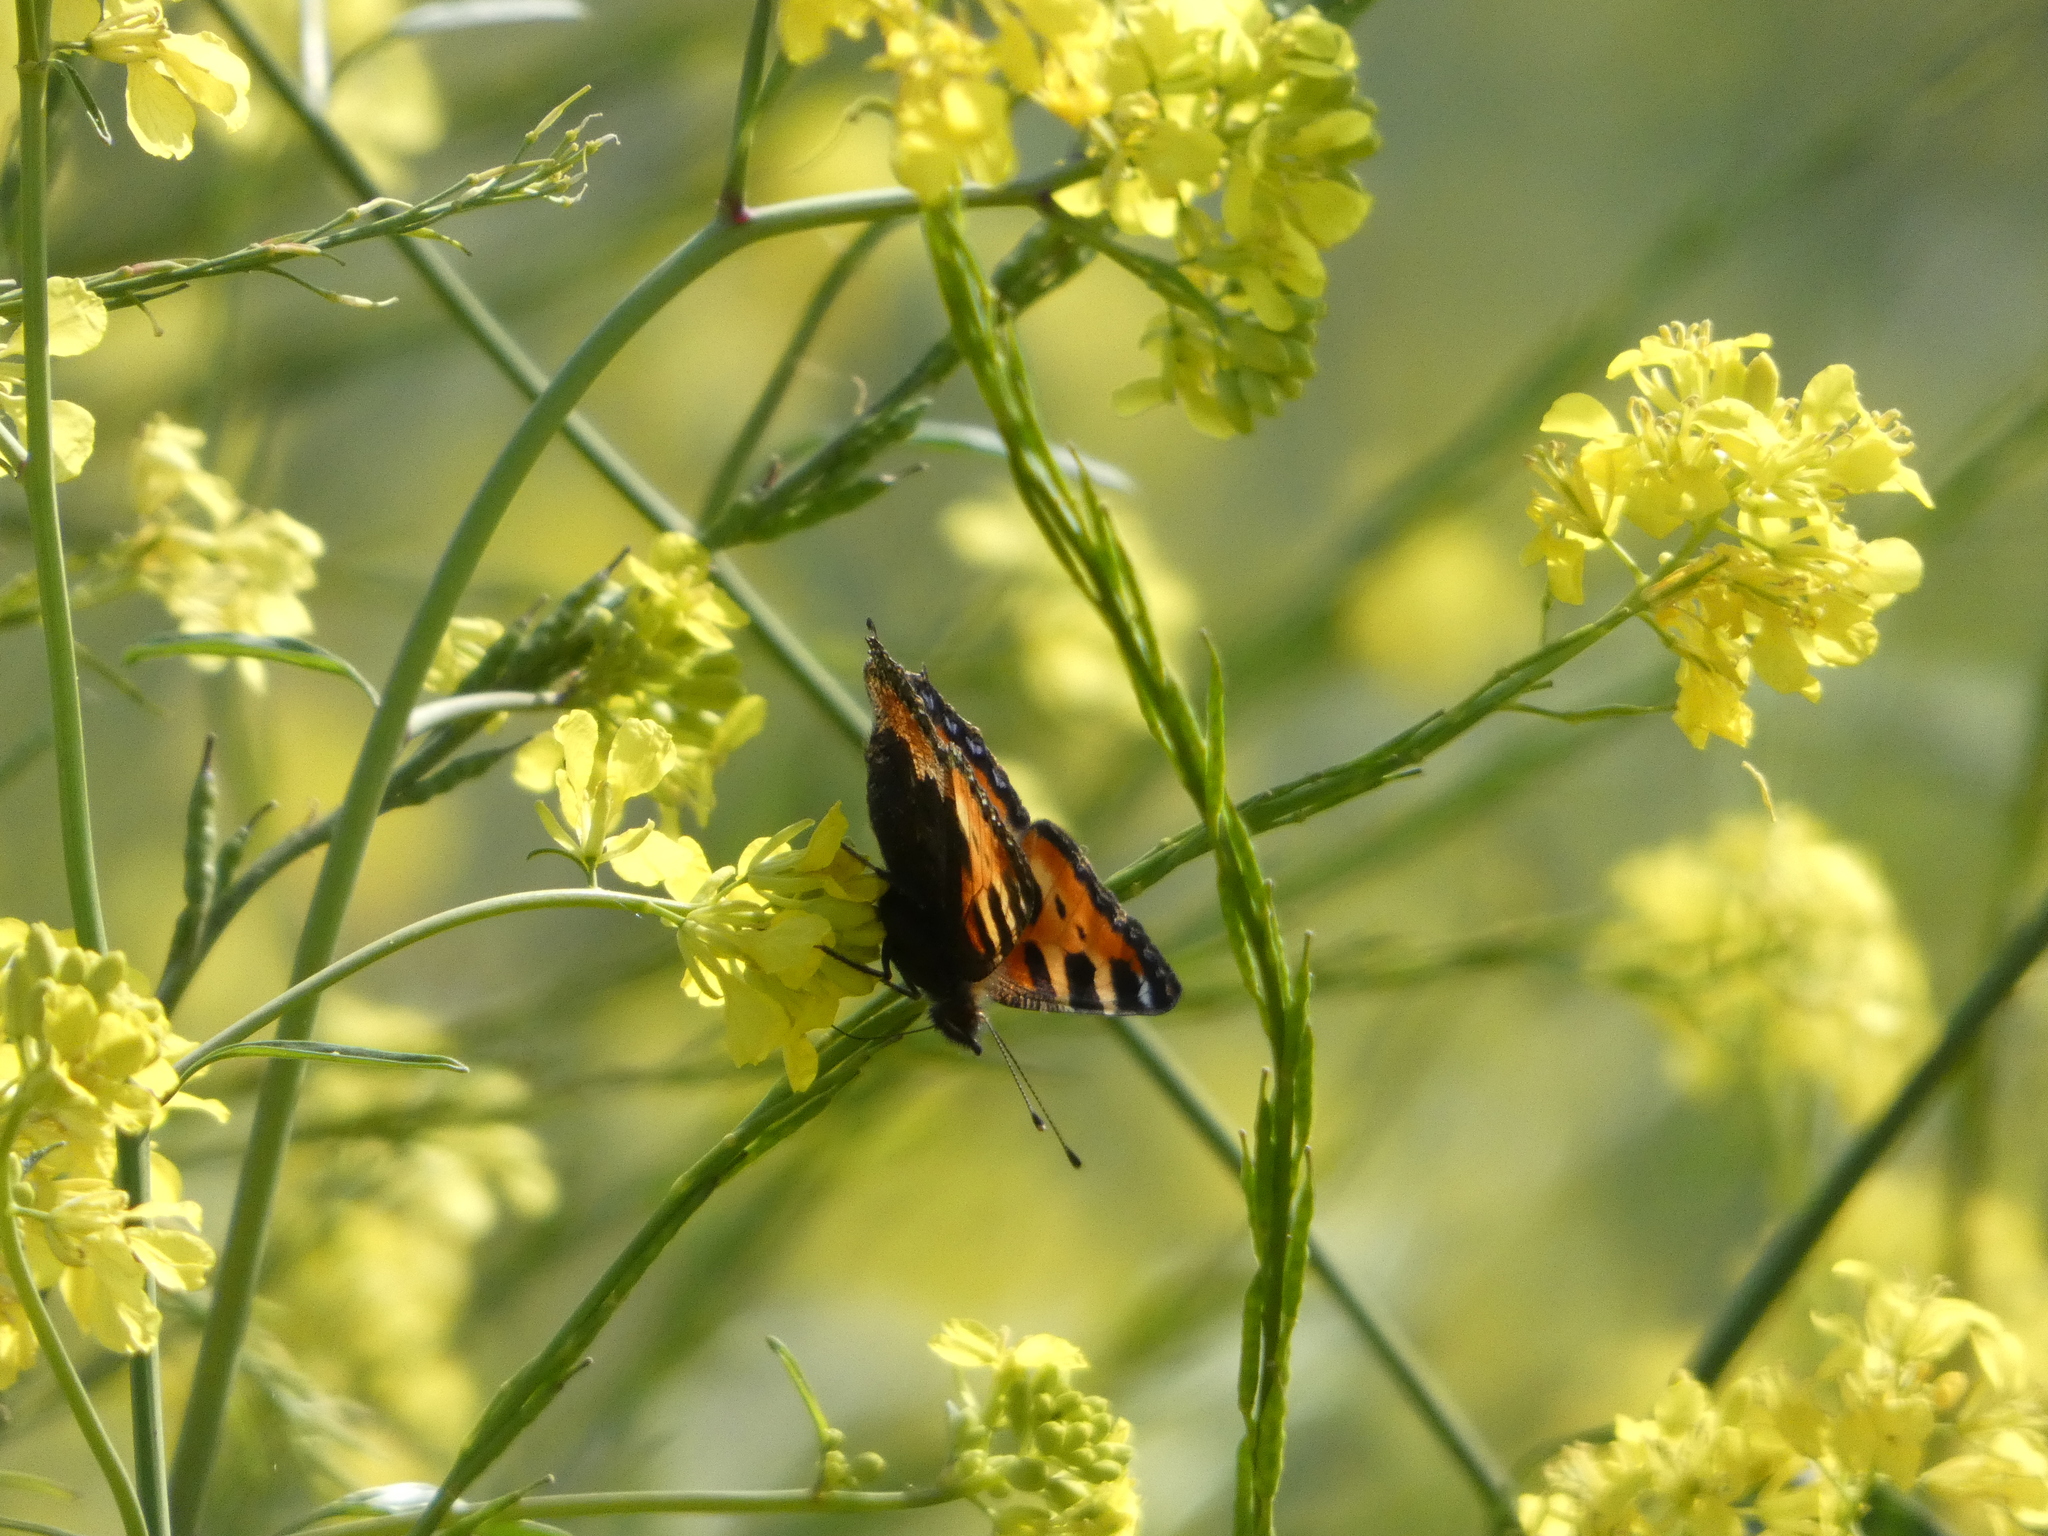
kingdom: Animalia
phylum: Arthropoda
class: Insecta
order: Lepidoptera
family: Nymphalidae
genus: Aglais
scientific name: Aglais urticae
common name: Small tortoiseshell
